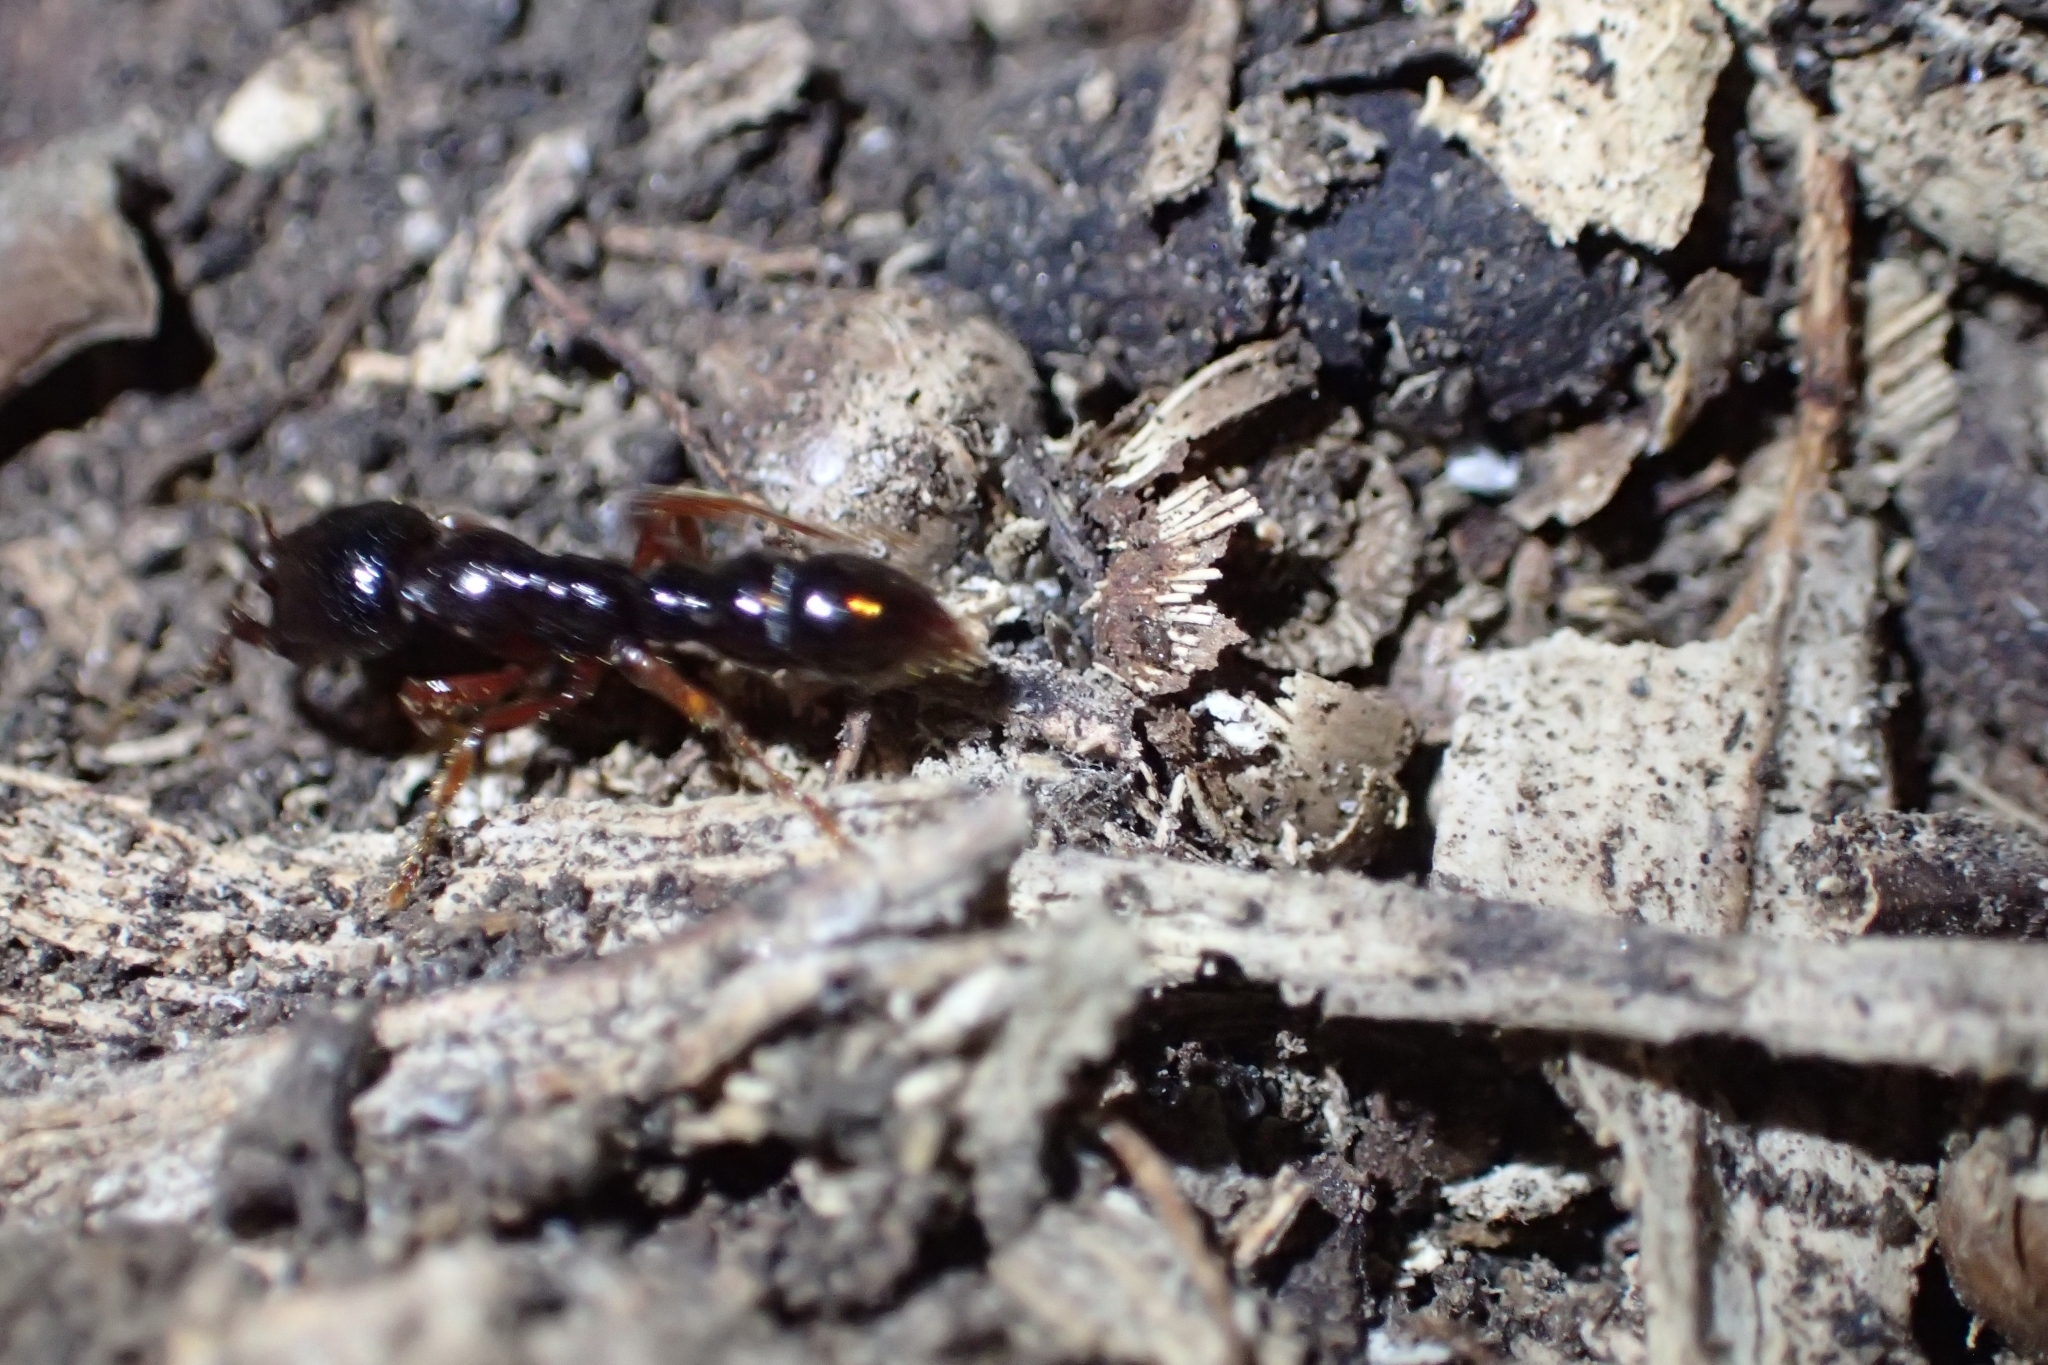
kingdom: Animalia
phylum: Arthropoda
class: Insecta
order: Hymenoptera
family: Formicidae
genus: Amblyopone
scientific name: Amblyopone australis
